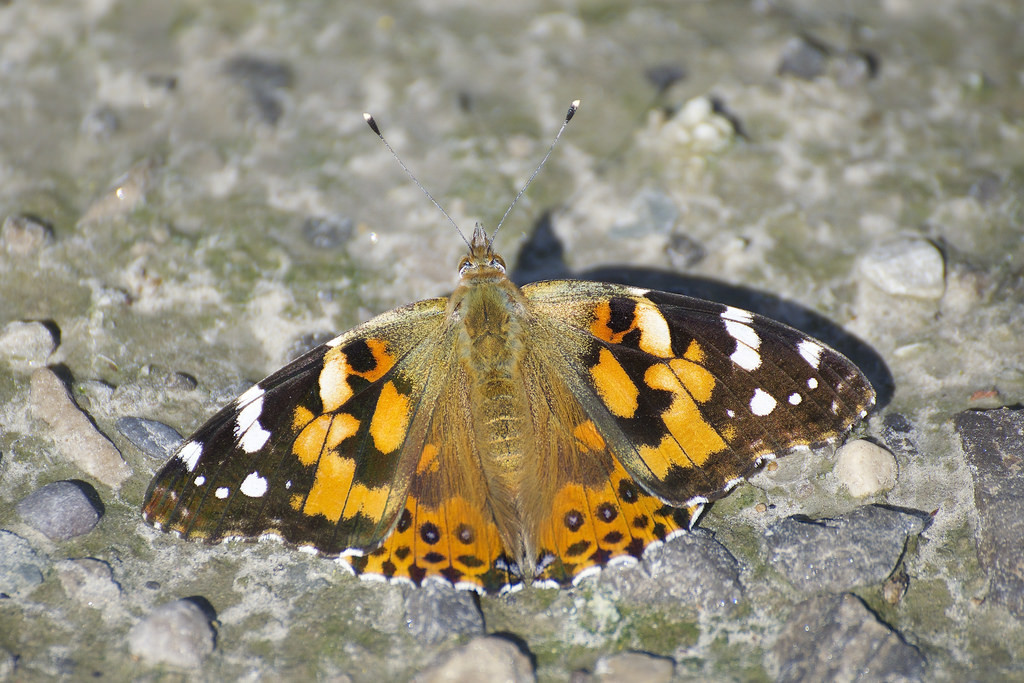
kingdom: Animalia
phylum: Arthropoda
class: Insecta
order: Lepidoptera
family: Nymphalidae
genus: Vanessa
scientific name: Vanessa cardui
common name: Painted lady
